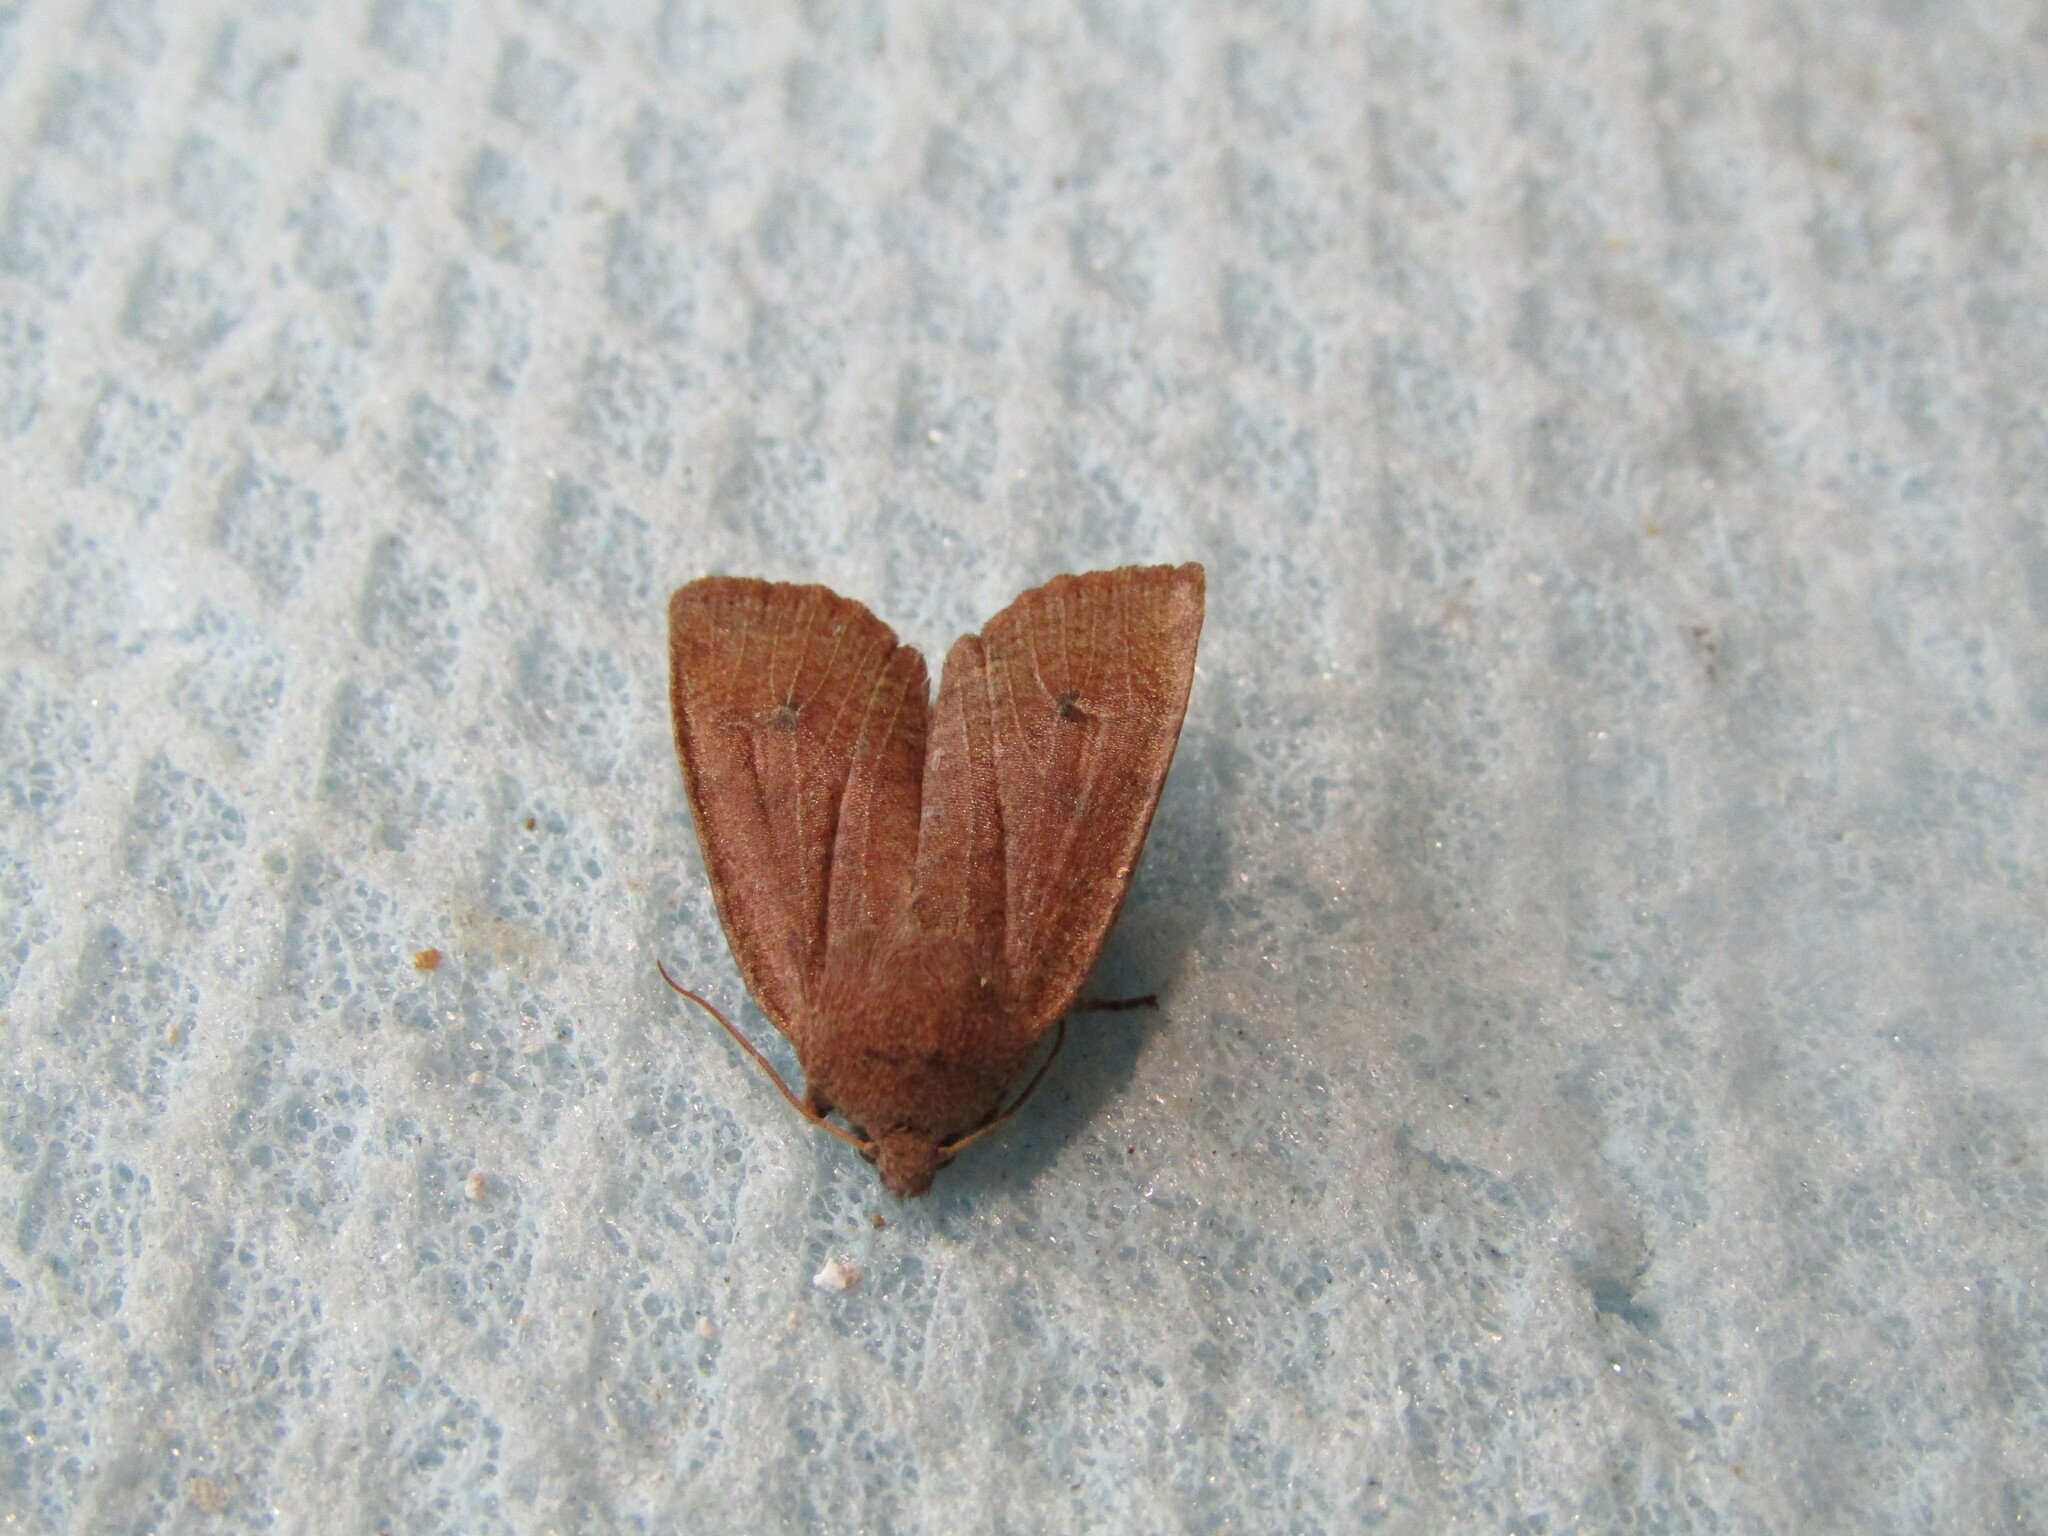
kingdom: Animalia
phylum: Arthropoda
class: Insecta
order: Lepidoptera
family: Noctuidae
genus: Conistra
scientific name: Conistra ragusae
